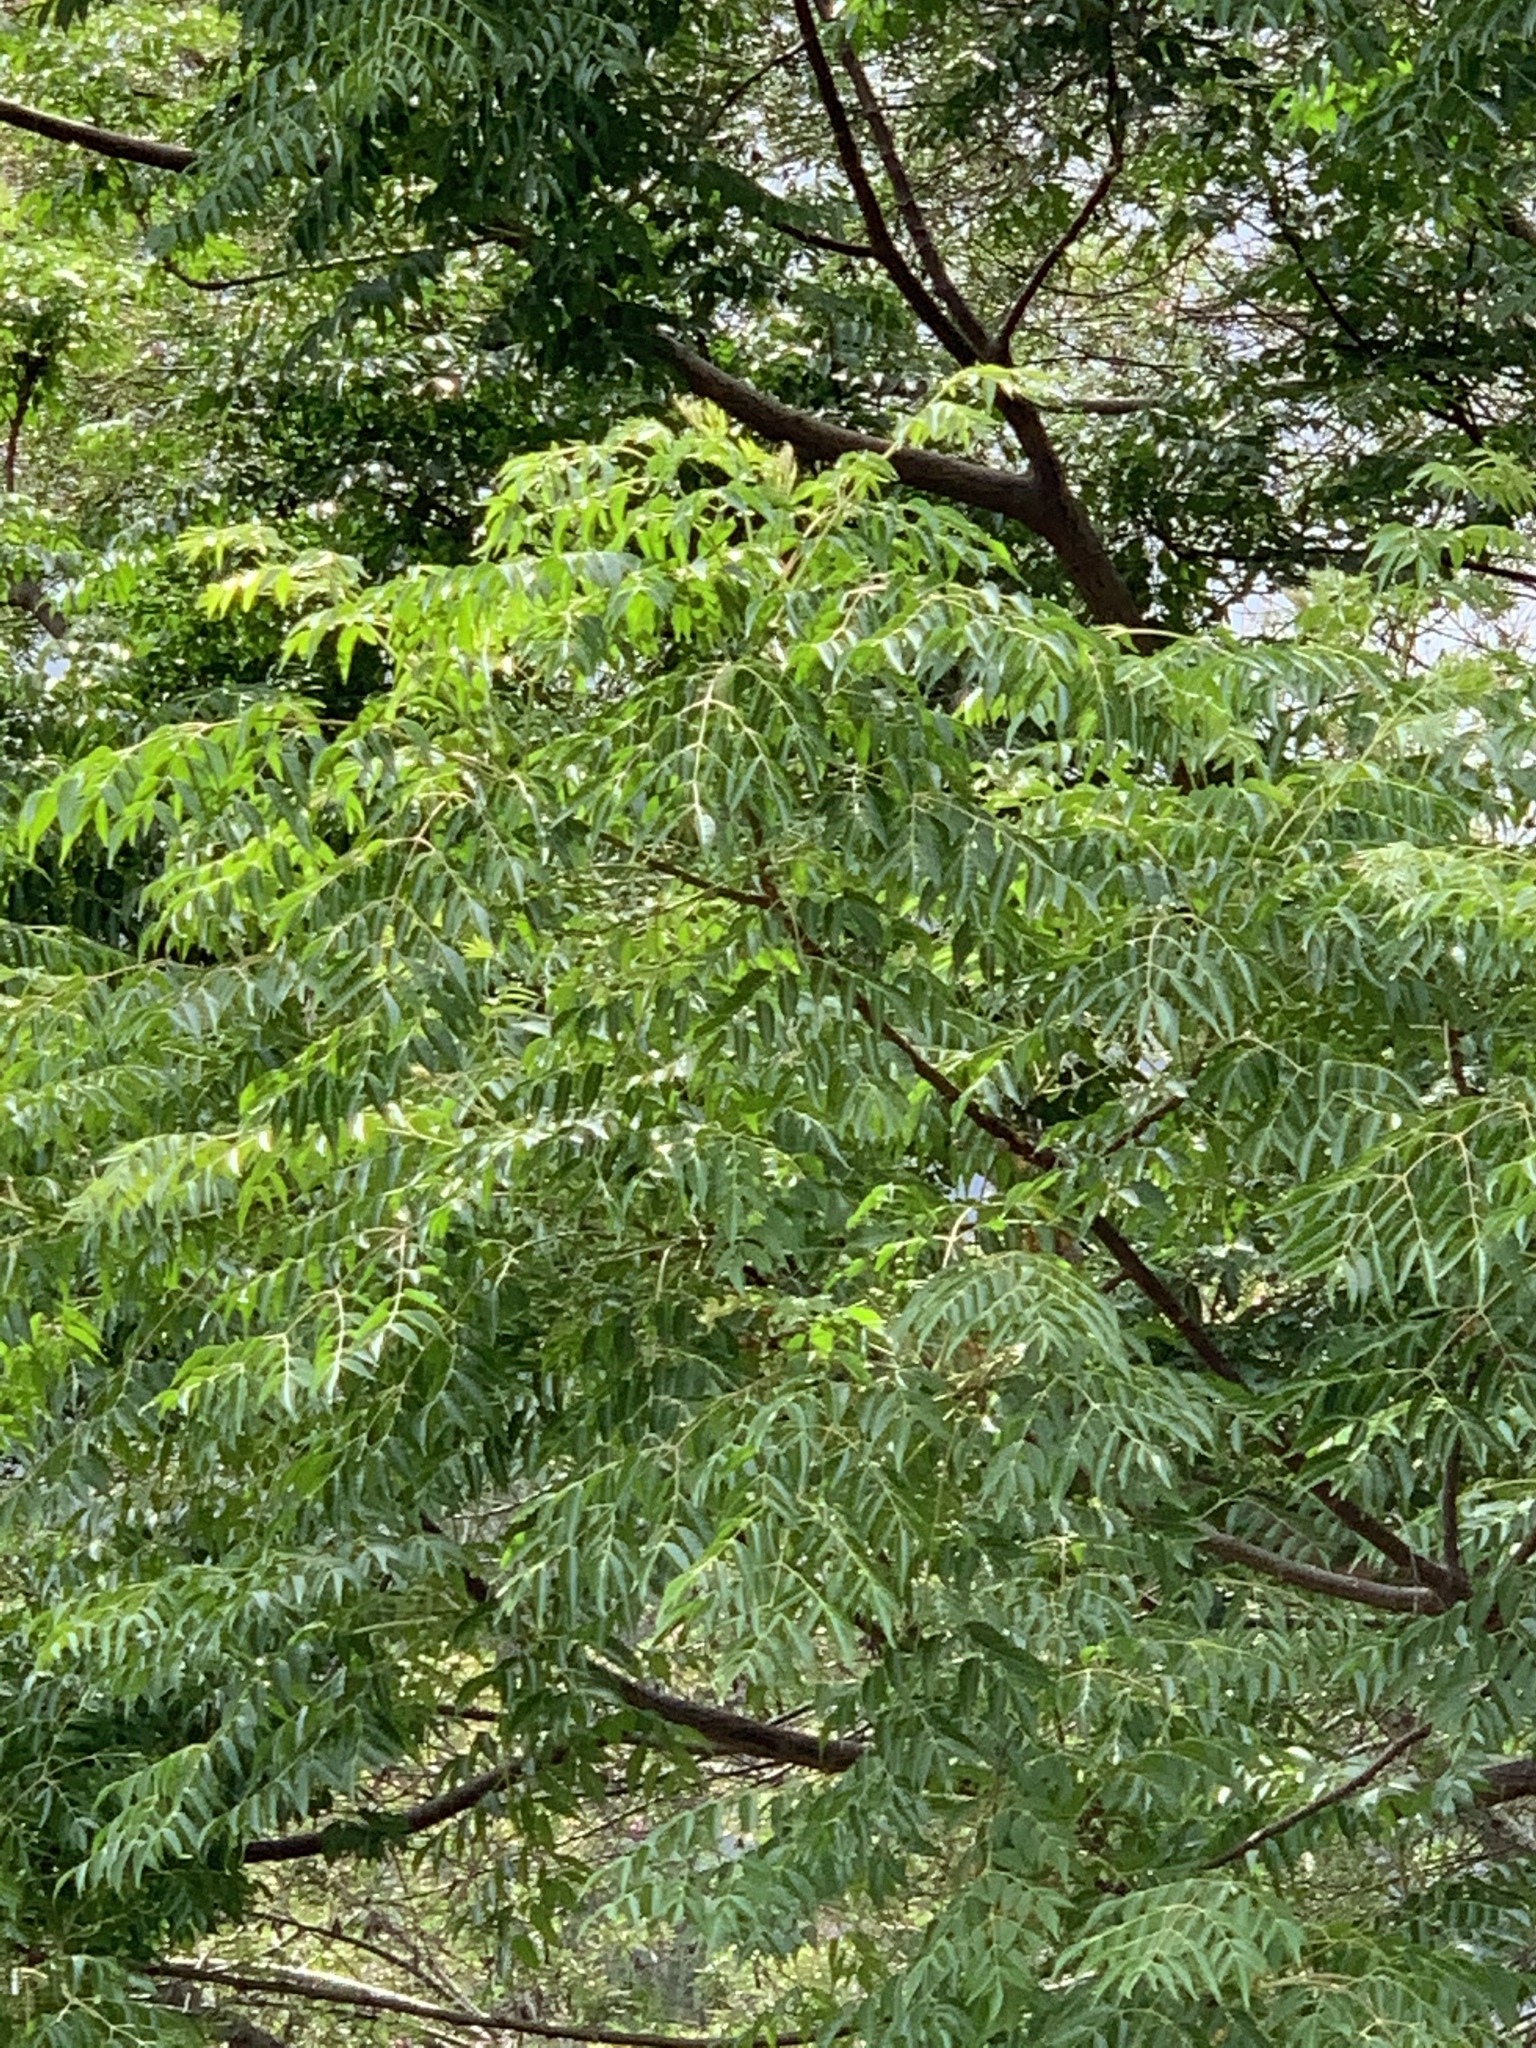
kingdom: Plantae
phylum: Tracheophyta
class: Magnoliopsida
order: Sapindales
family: Meliaceae
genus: Melia
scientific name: Melia azedarach
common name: Chinaberrytree
